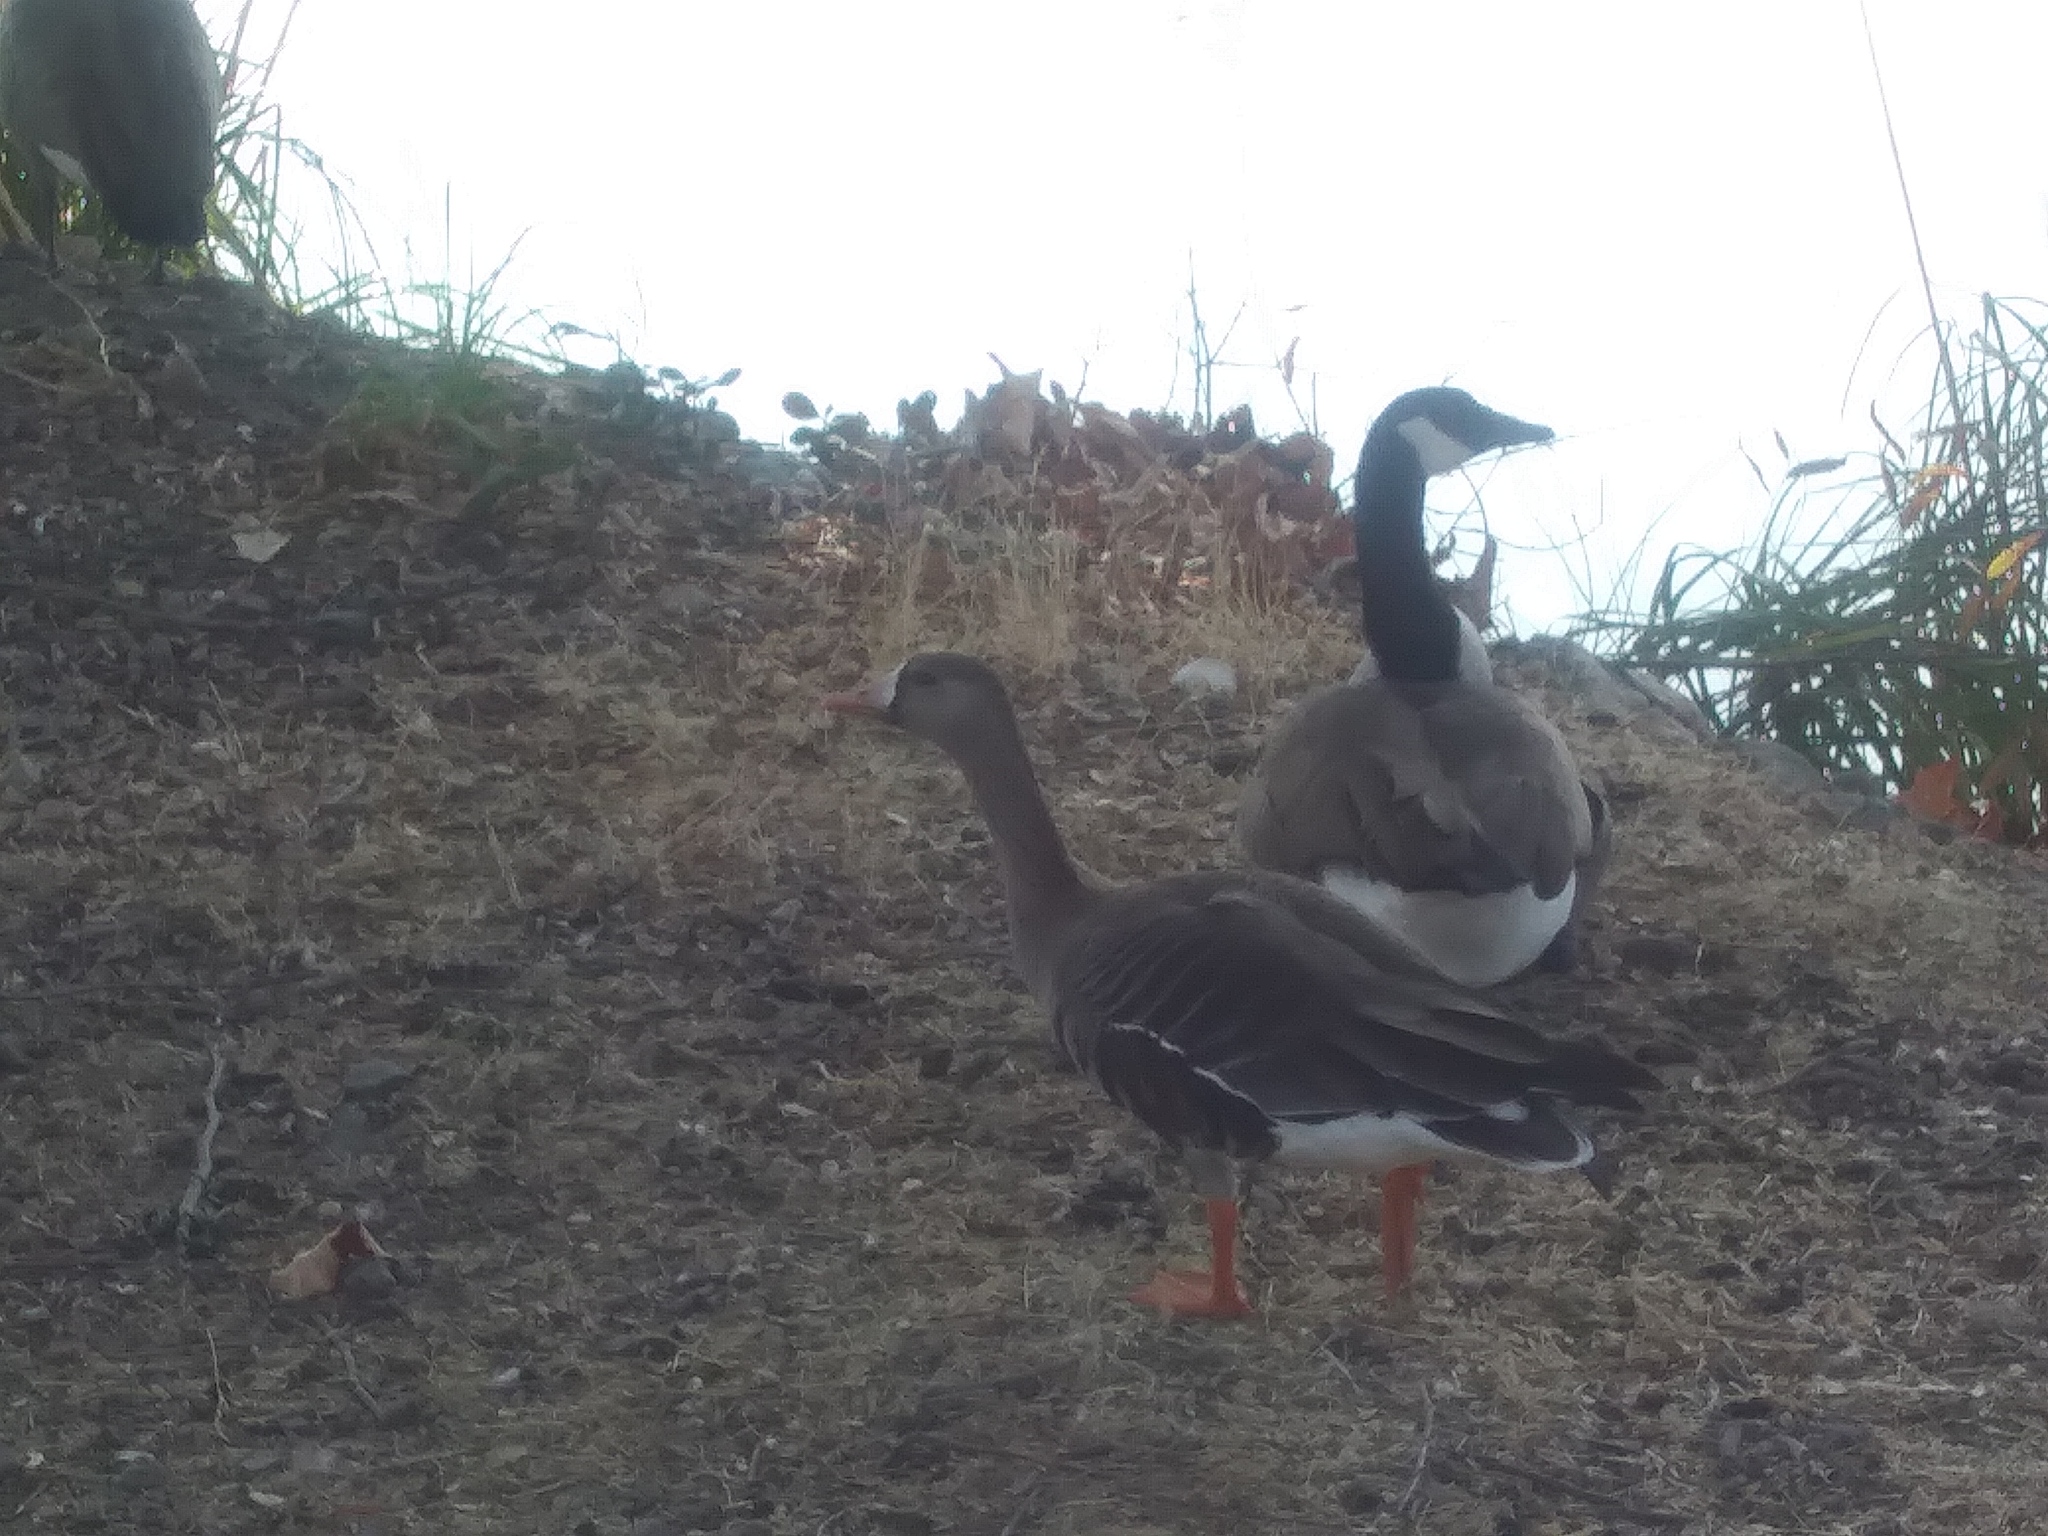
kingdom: Animalia
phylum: Chordata
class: Aves
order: Anseriformes
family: Anatidae
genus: Anser
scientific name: Anser albifrons
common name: Greater white-fronted goose
